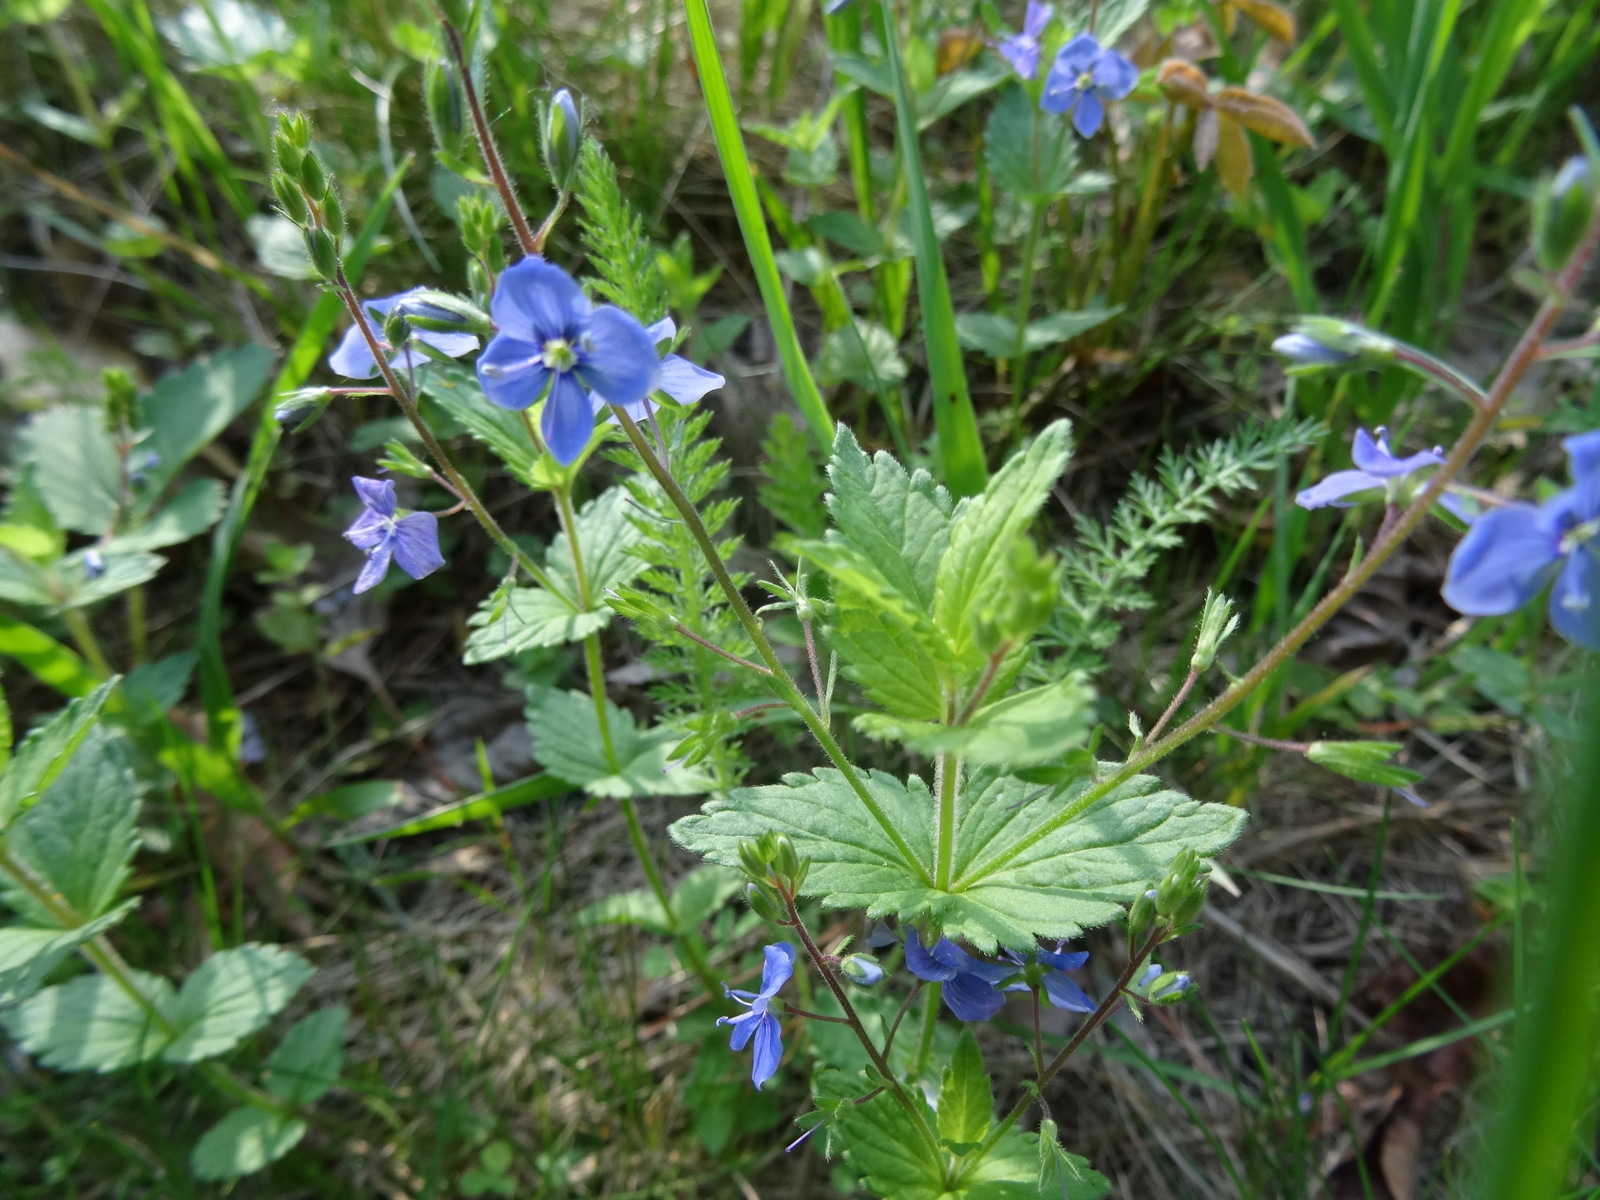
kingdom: Plantae
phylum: Tracheophyta
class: Magnoliopsida
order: Lamiales
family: Plantaginaceae
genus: Veronica
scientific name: Veronica chamaedrys
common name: Germander speedwell
